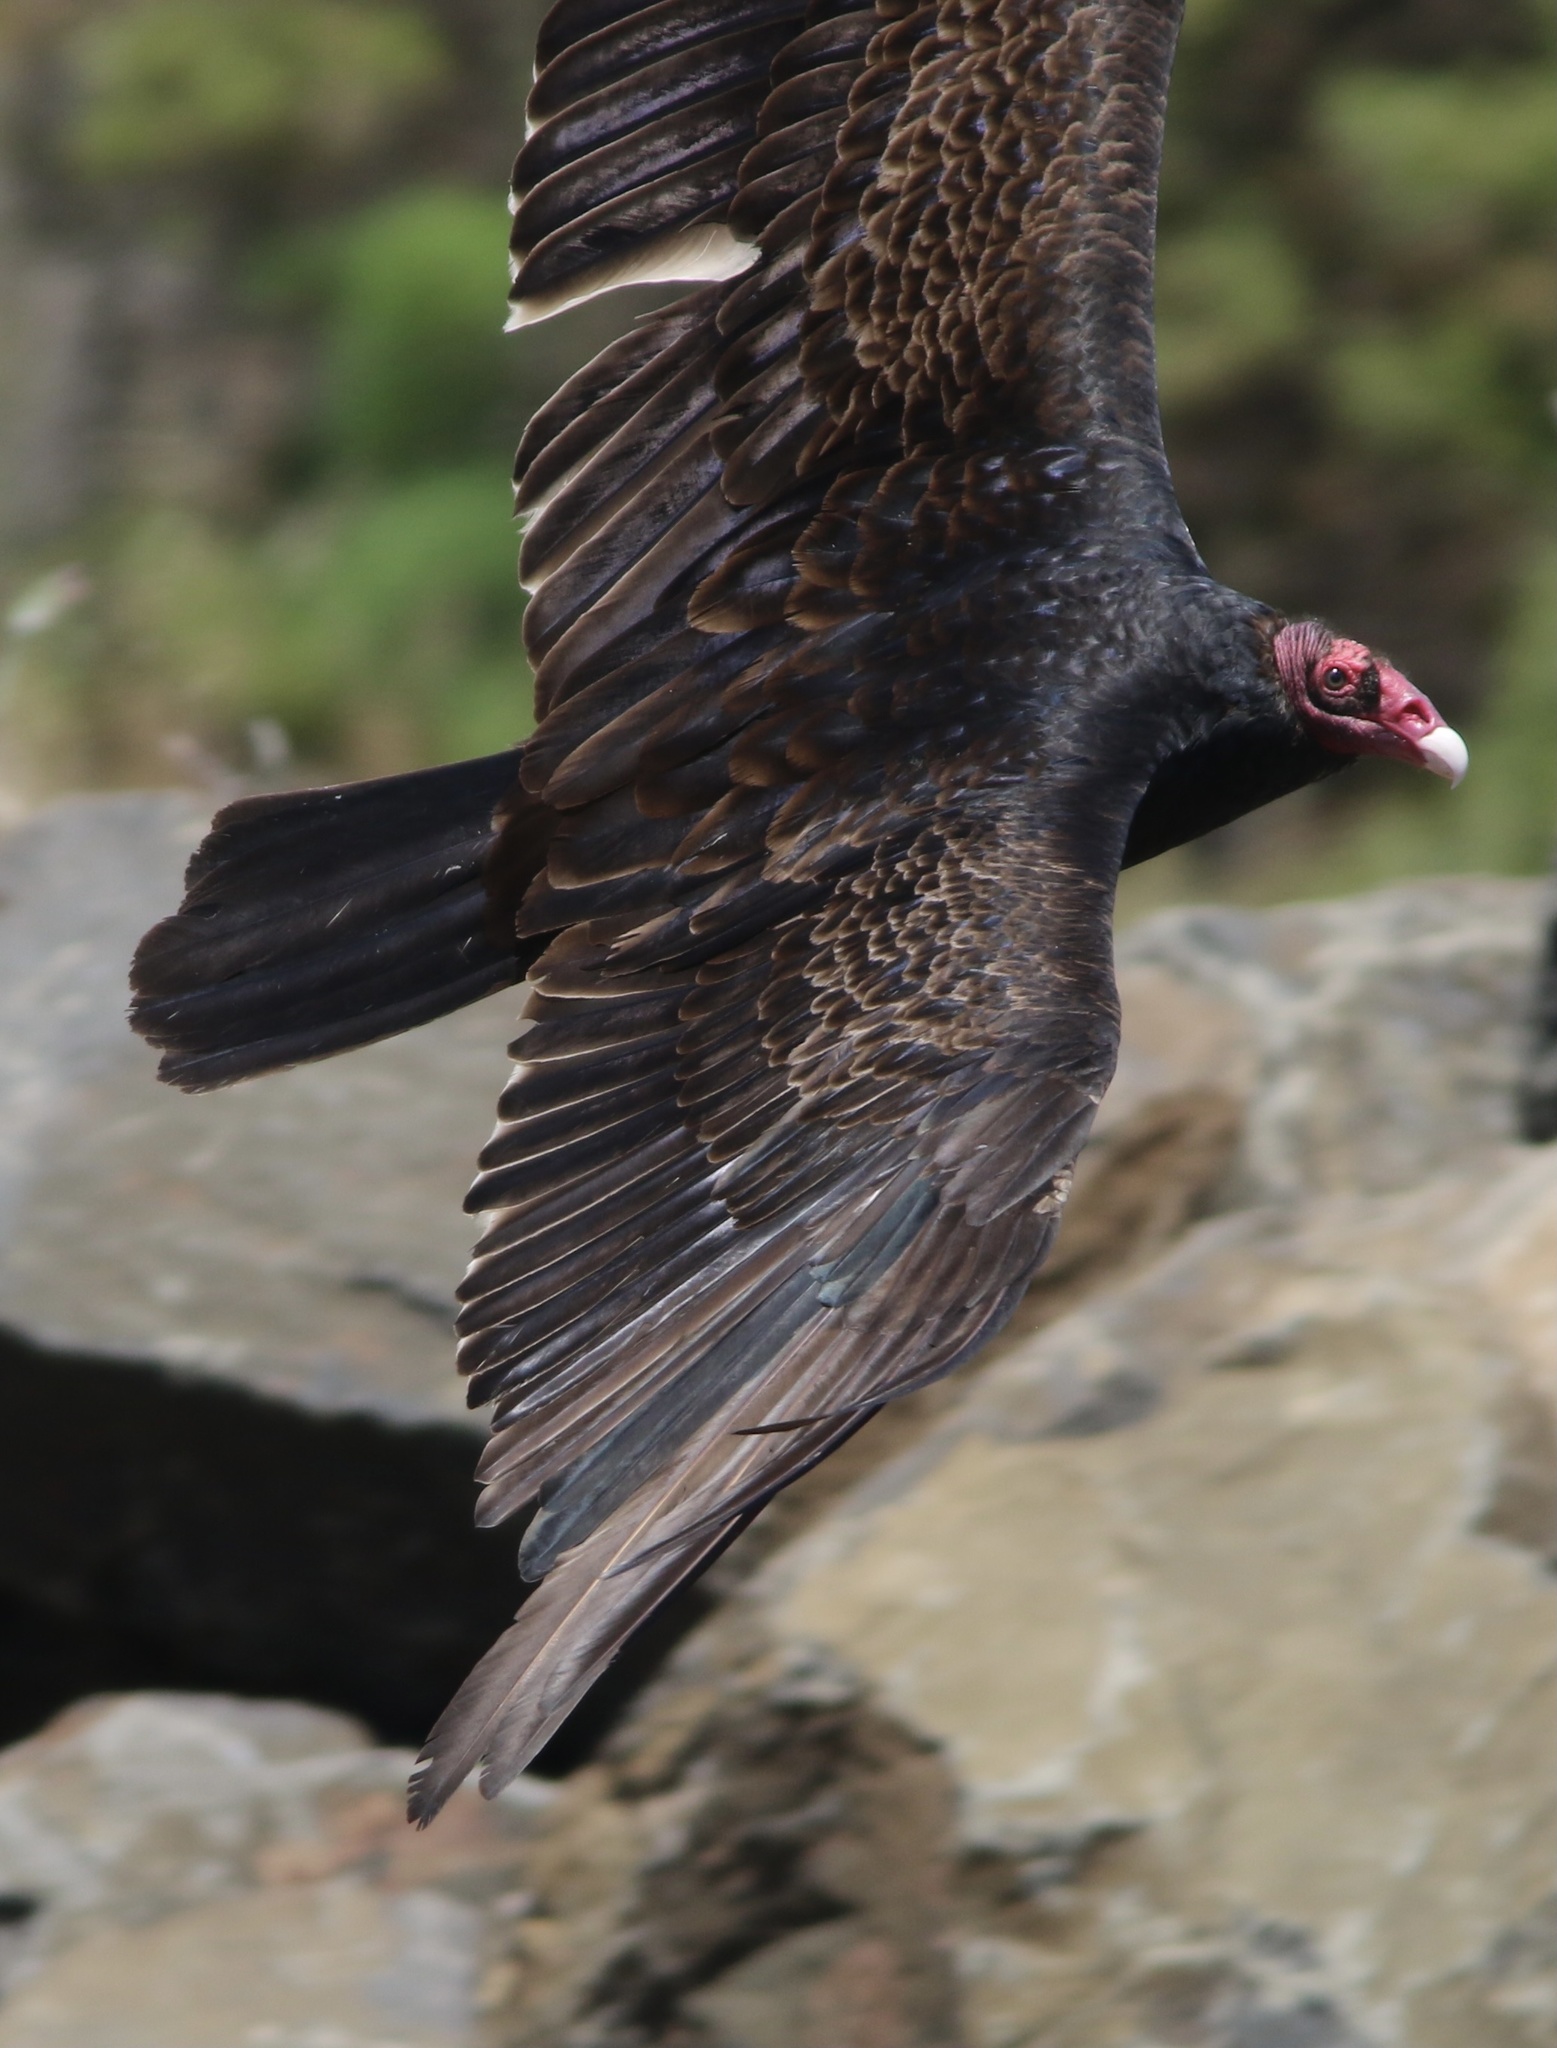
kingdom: Animalia
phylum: Chordata
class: Aves
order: Accipitriformes
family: Cathartidae
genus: Cathartes
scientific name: Cathartes aura
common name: Turkey vulture
